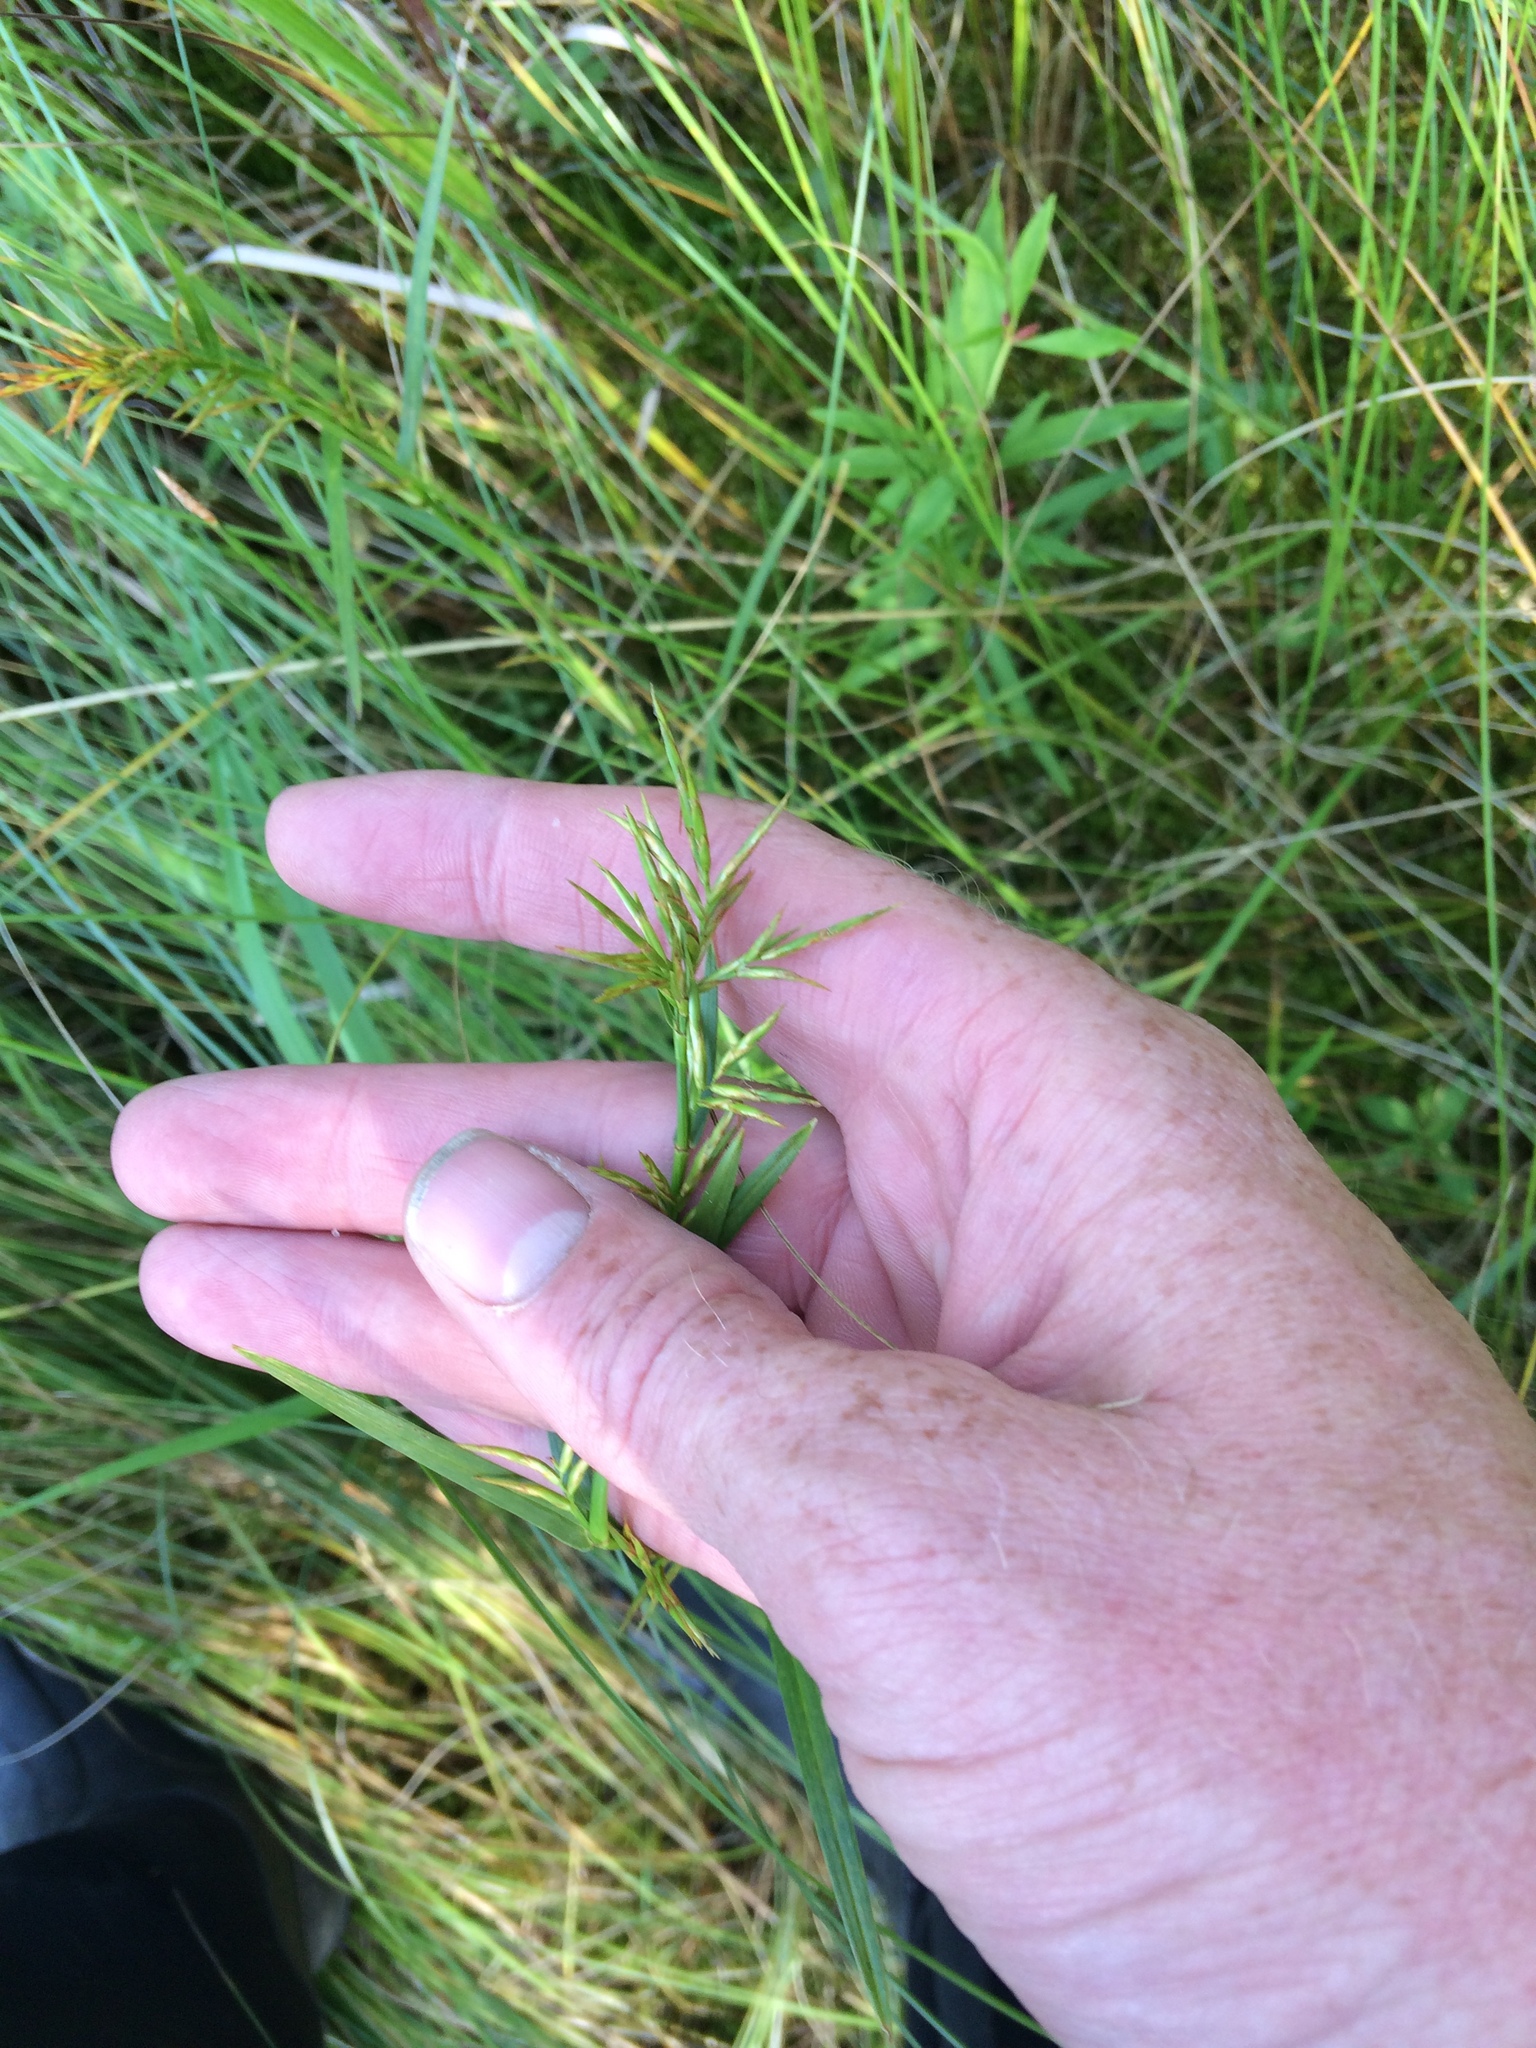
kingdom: Plantae
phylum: Tracheophyta
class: Liliopsida
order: Poales
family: Cyperaceae
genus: Dulichium
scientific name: Dulichium arundinaceum
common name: Three-way sedge
